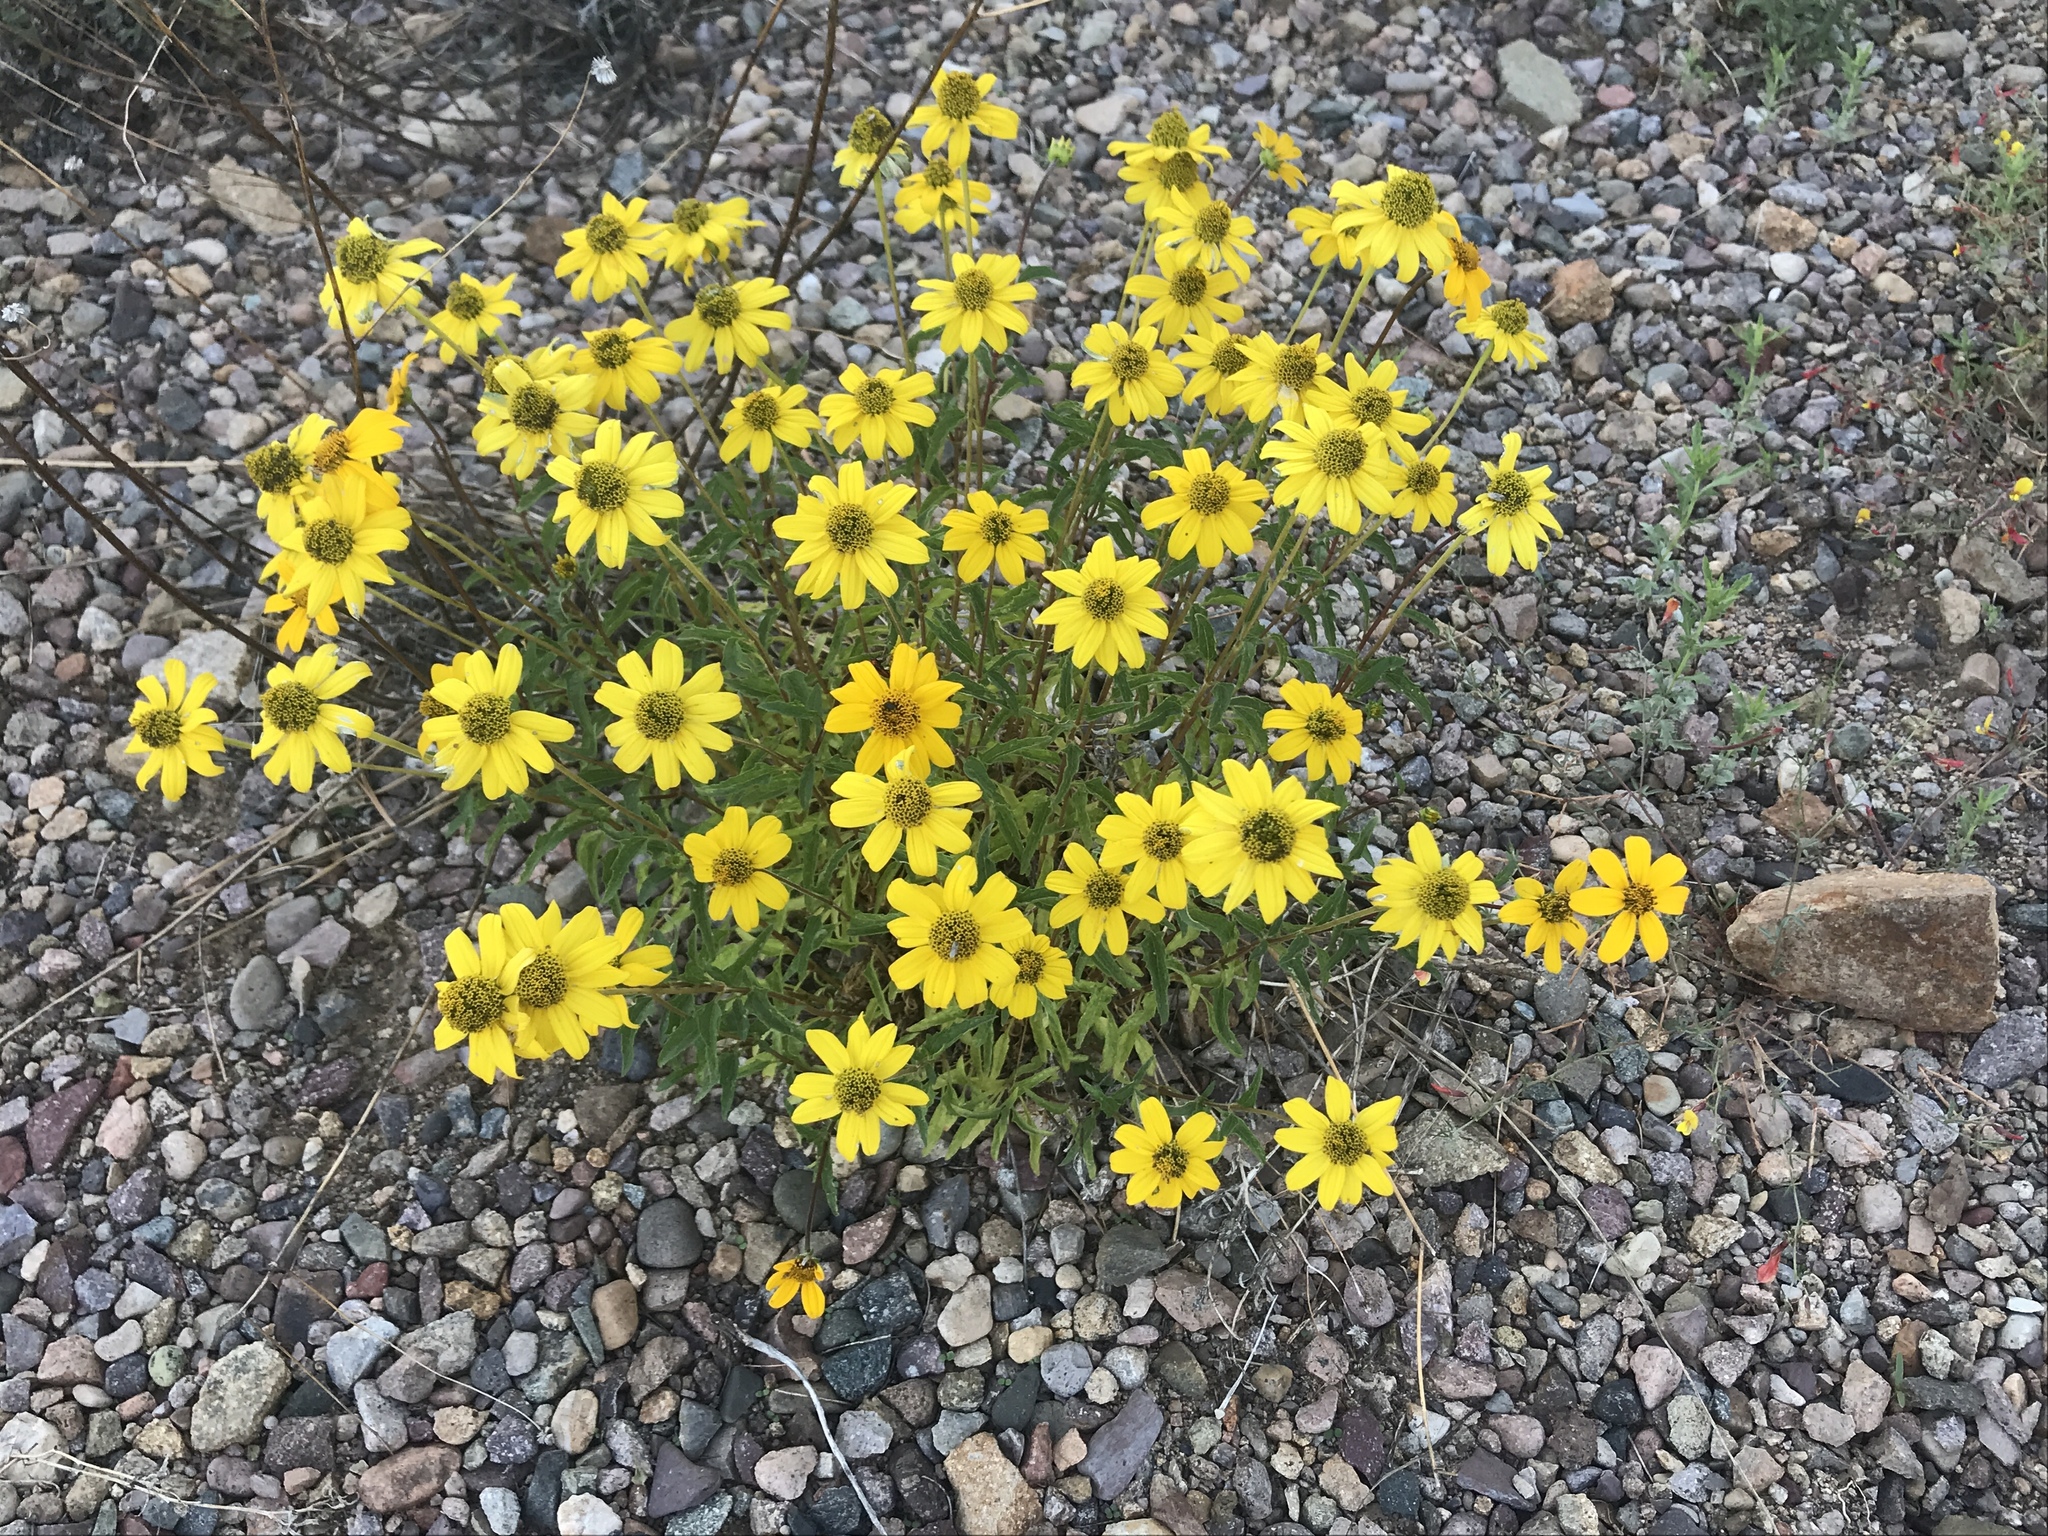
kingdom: Plantae
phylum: Tracheophyta
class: Magnoliopsida
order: Asterales
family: Asteraceae
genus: Heliopsis
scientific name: Heliopsis parvifolia
